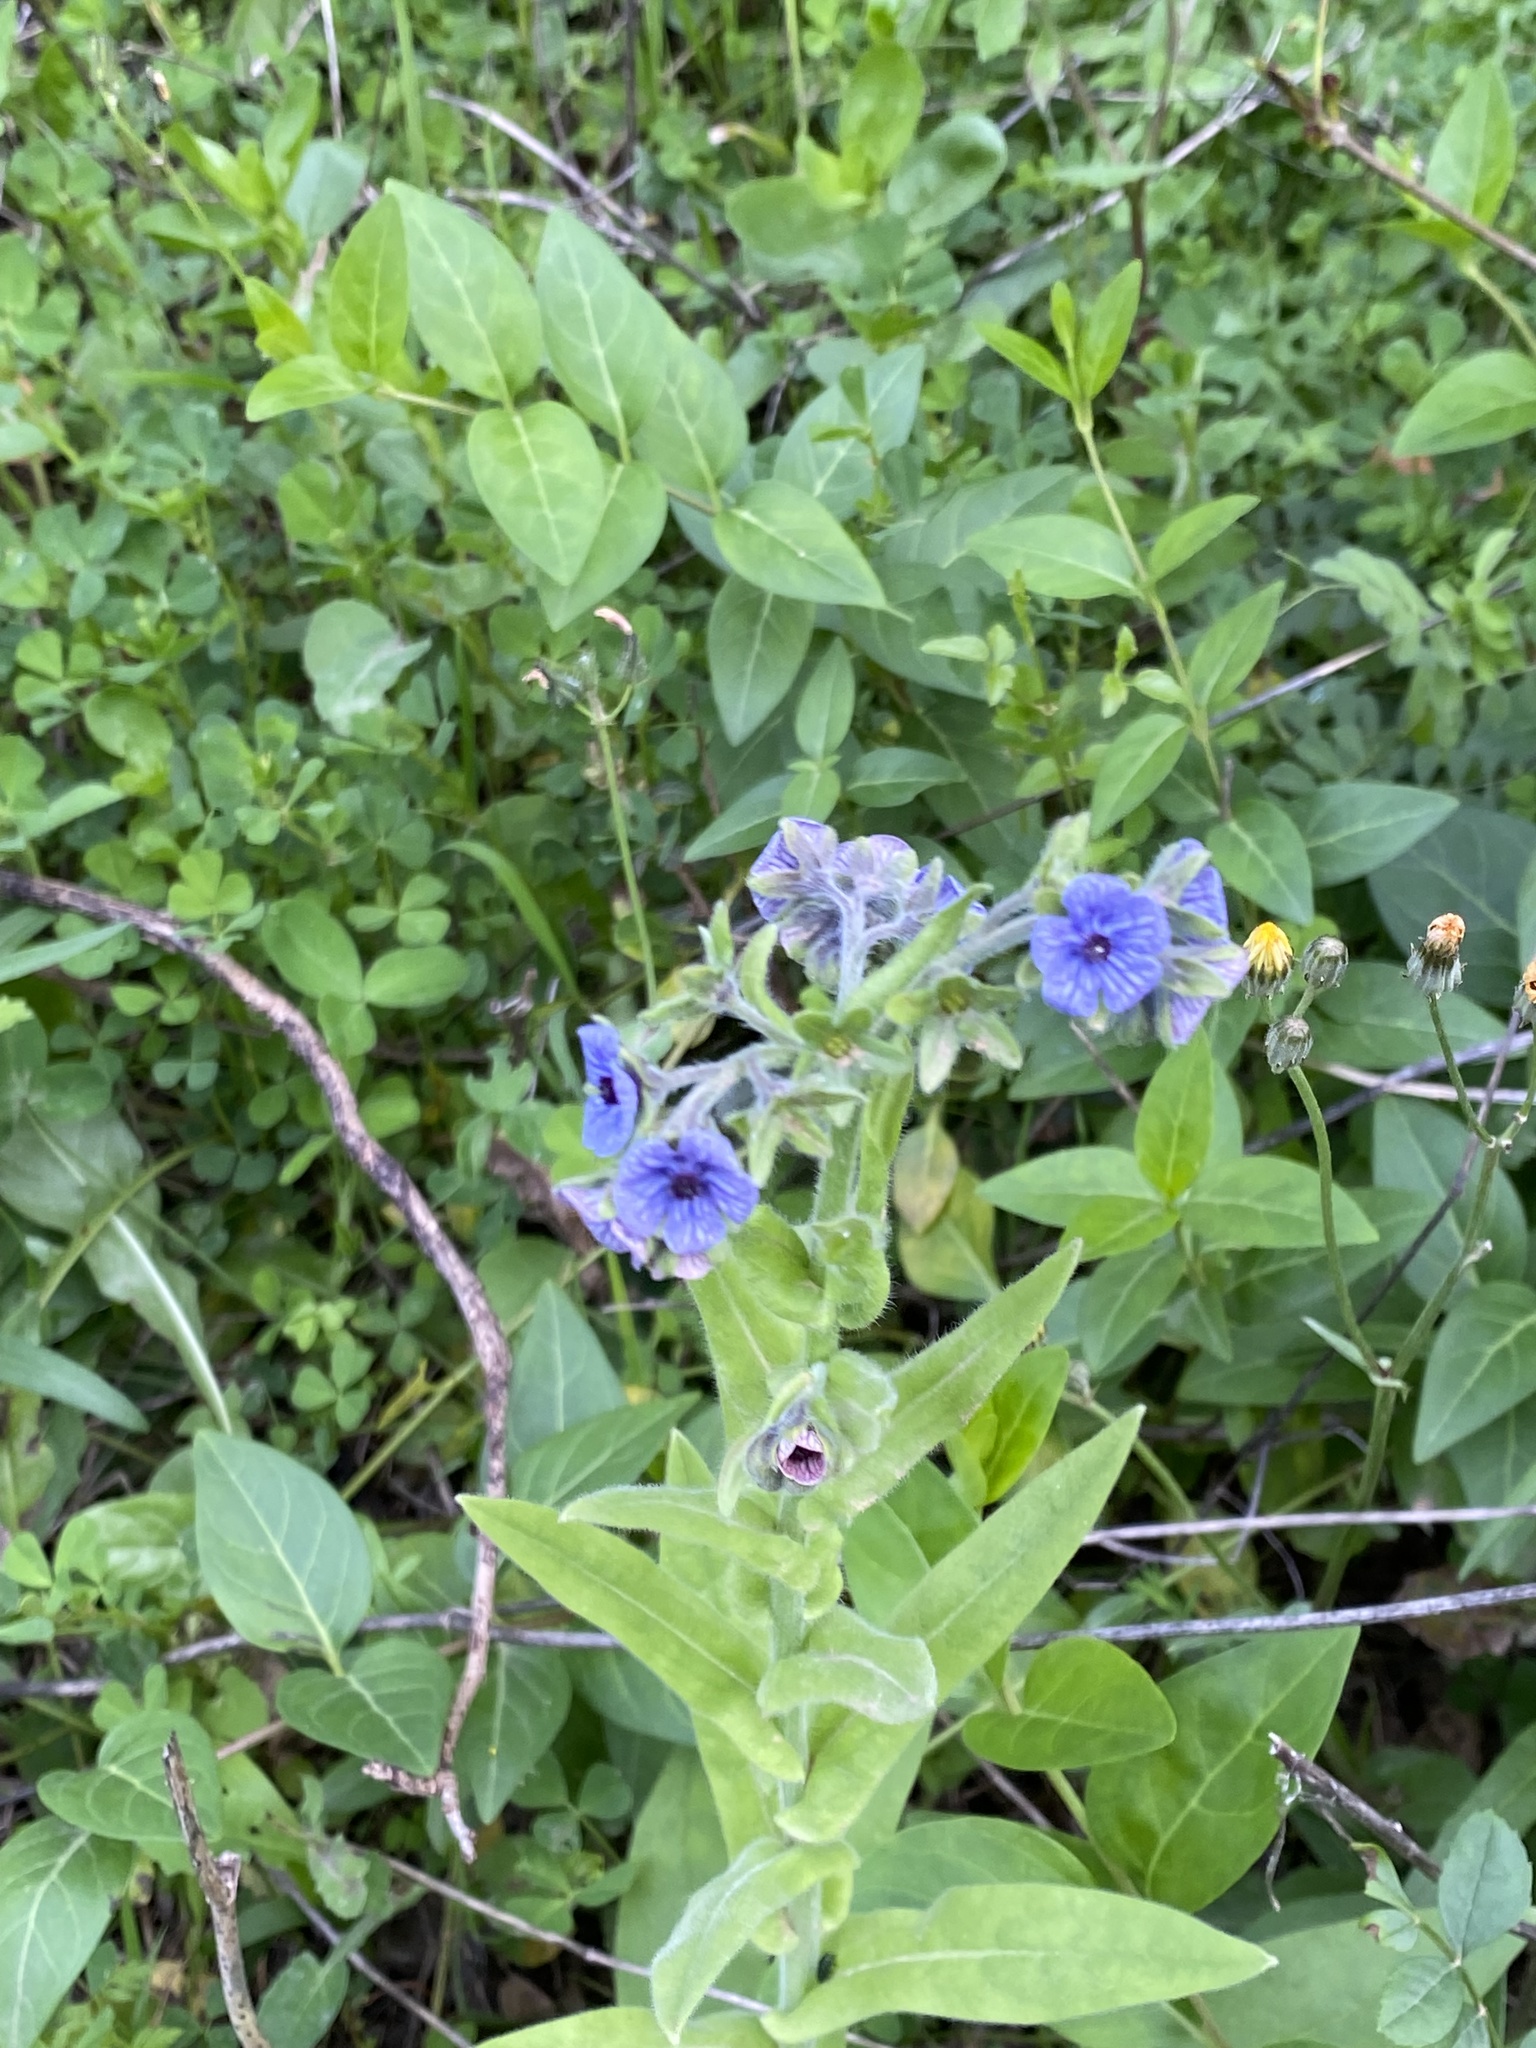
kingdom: Plantae
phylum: Tracheophyta
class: Magnoliopsida
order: Boraginales
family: Boraginaceae
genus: Cynoglossum
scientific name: Cynoglossum creticum
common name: Blue hound's tongue
